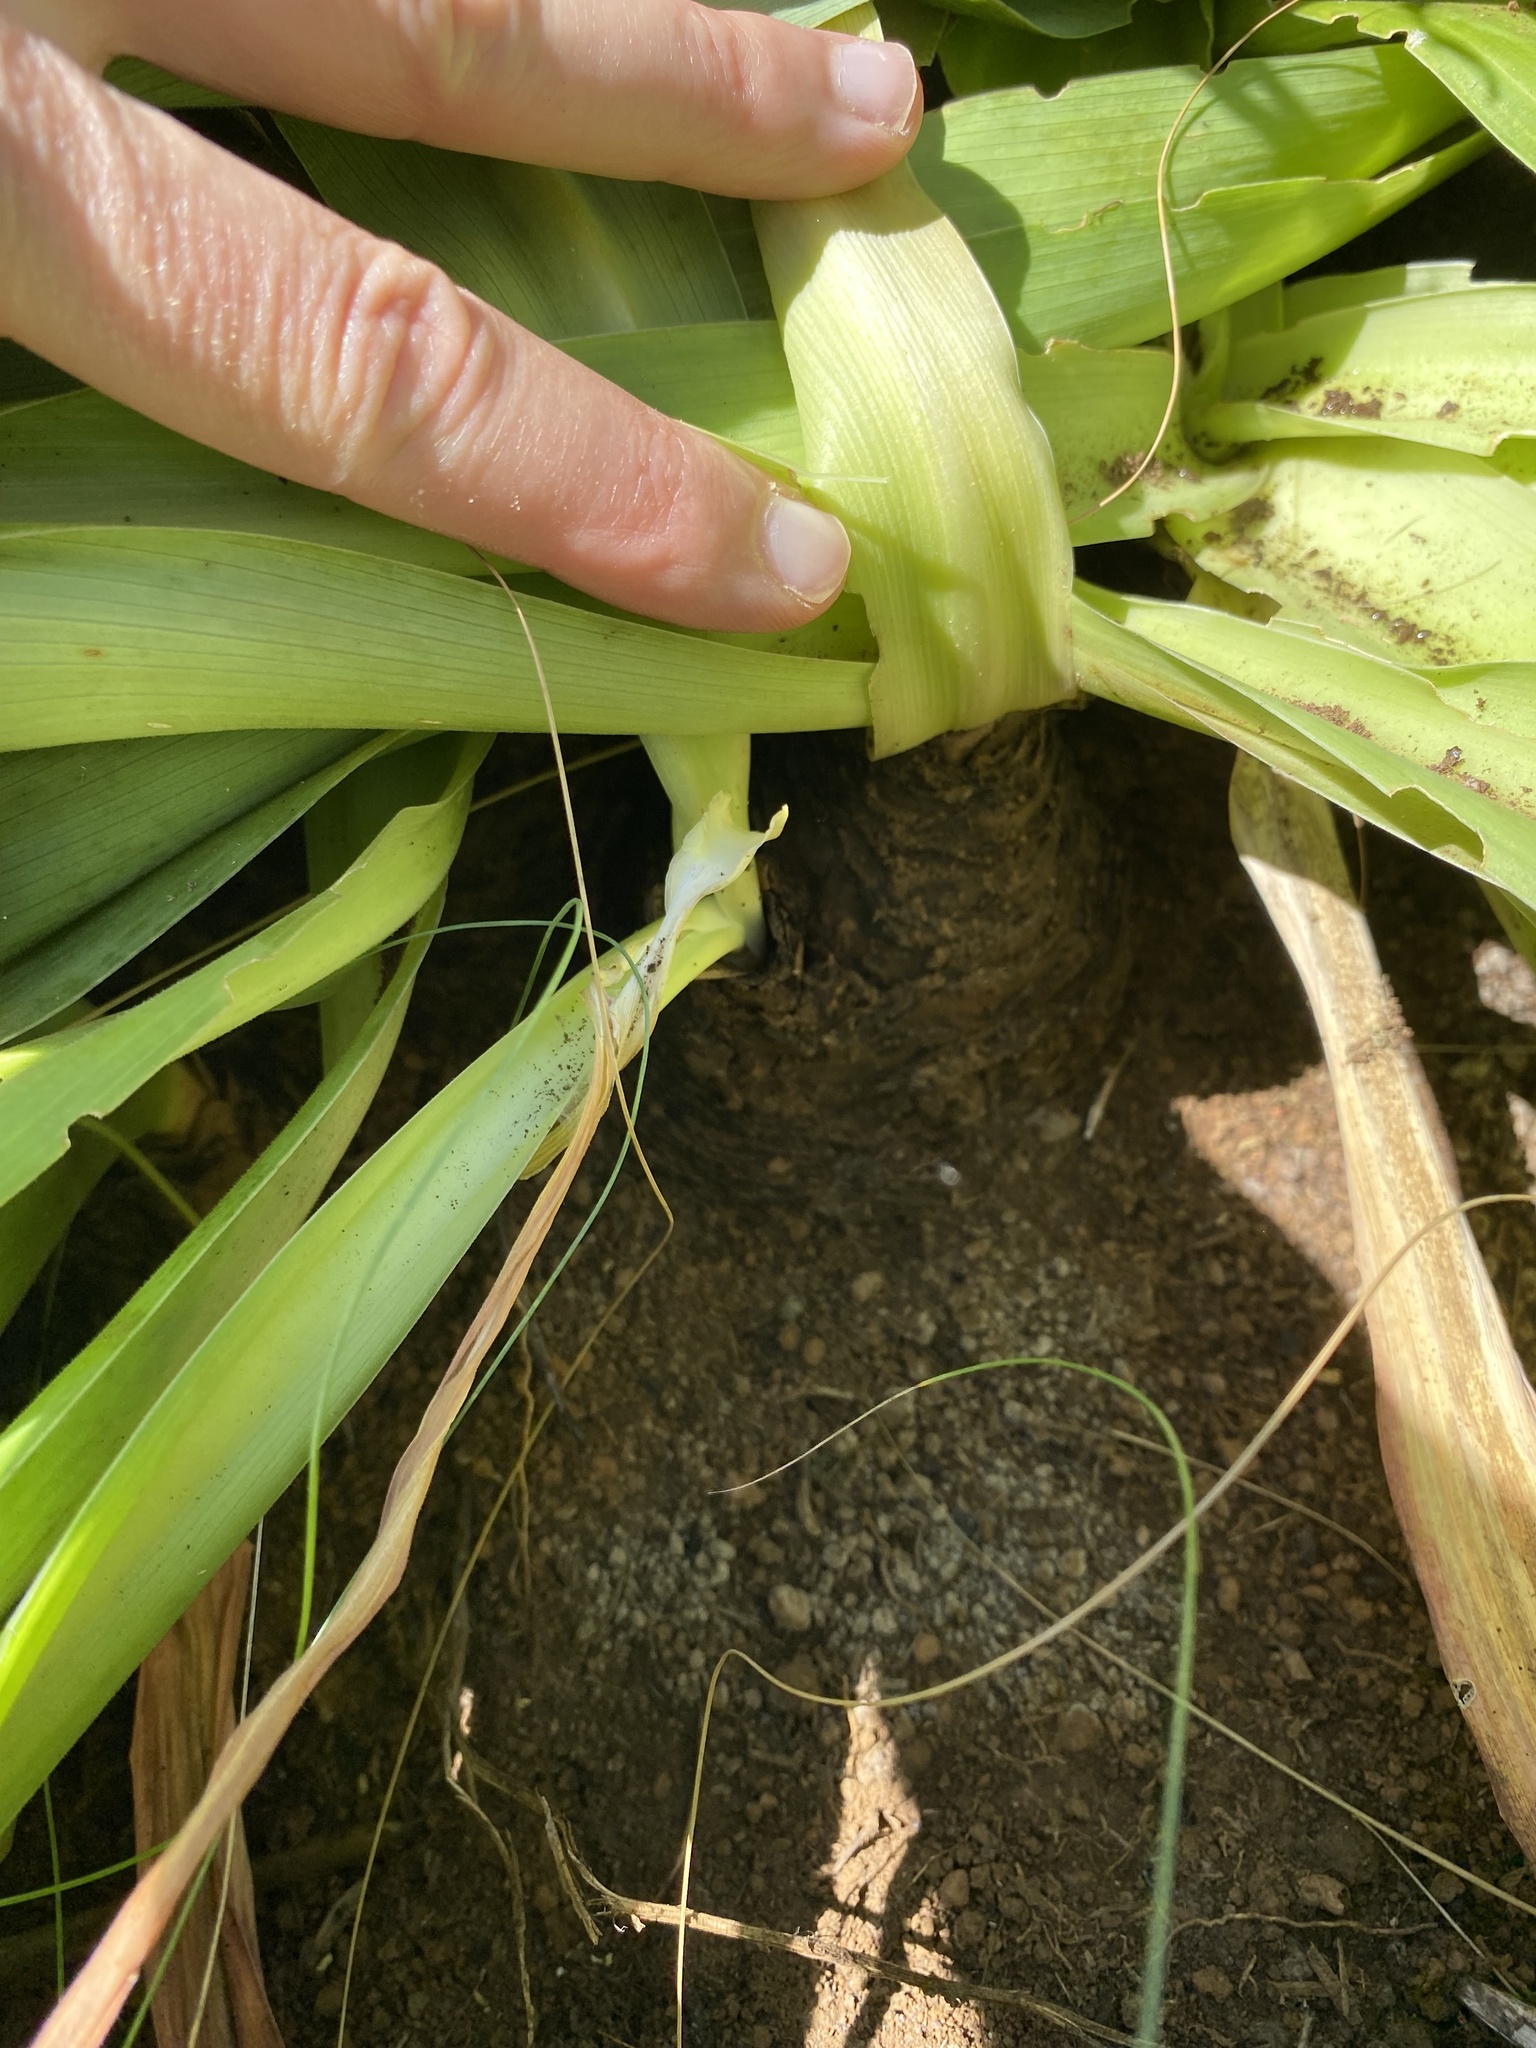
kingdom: Plantae
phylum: Tracheophyta
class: Liliopsida
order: Asparagales
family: Asparagaceae
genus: Merwilla
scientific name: Merwilla plumbea
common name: Blue-squill
